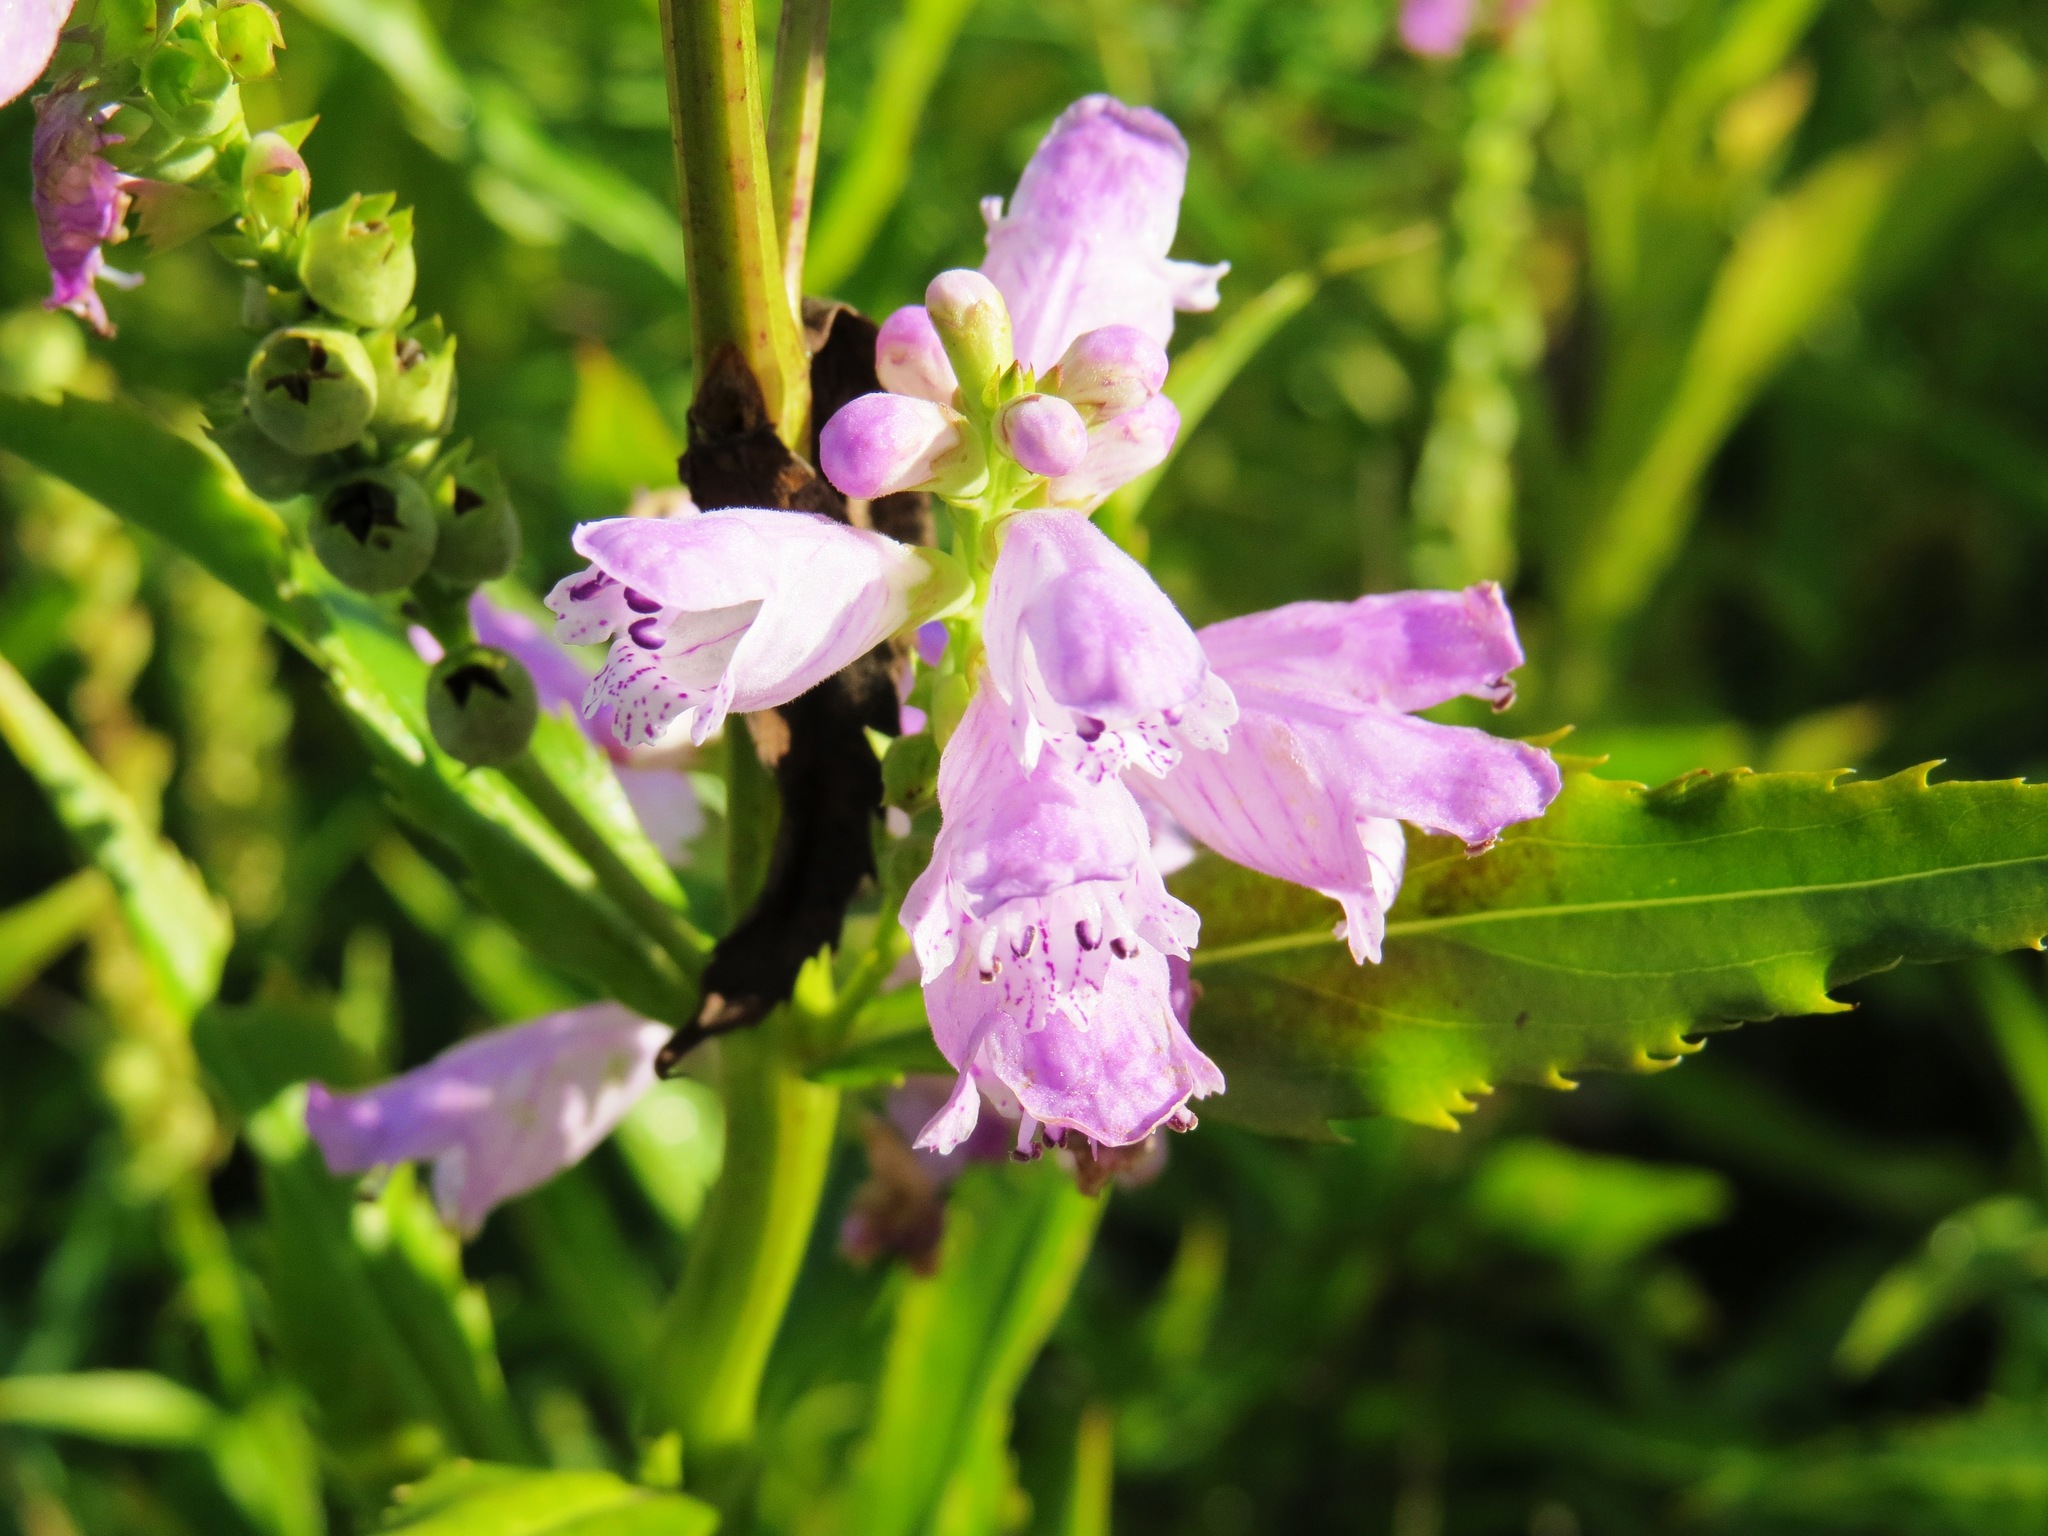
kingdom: Plantae
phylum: Tracheophyta
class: Magnoliopsida
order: Lamiales
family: Lamiaceae
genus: Physostegia
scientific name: Physostegia virginiana
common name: Obedient-plant
